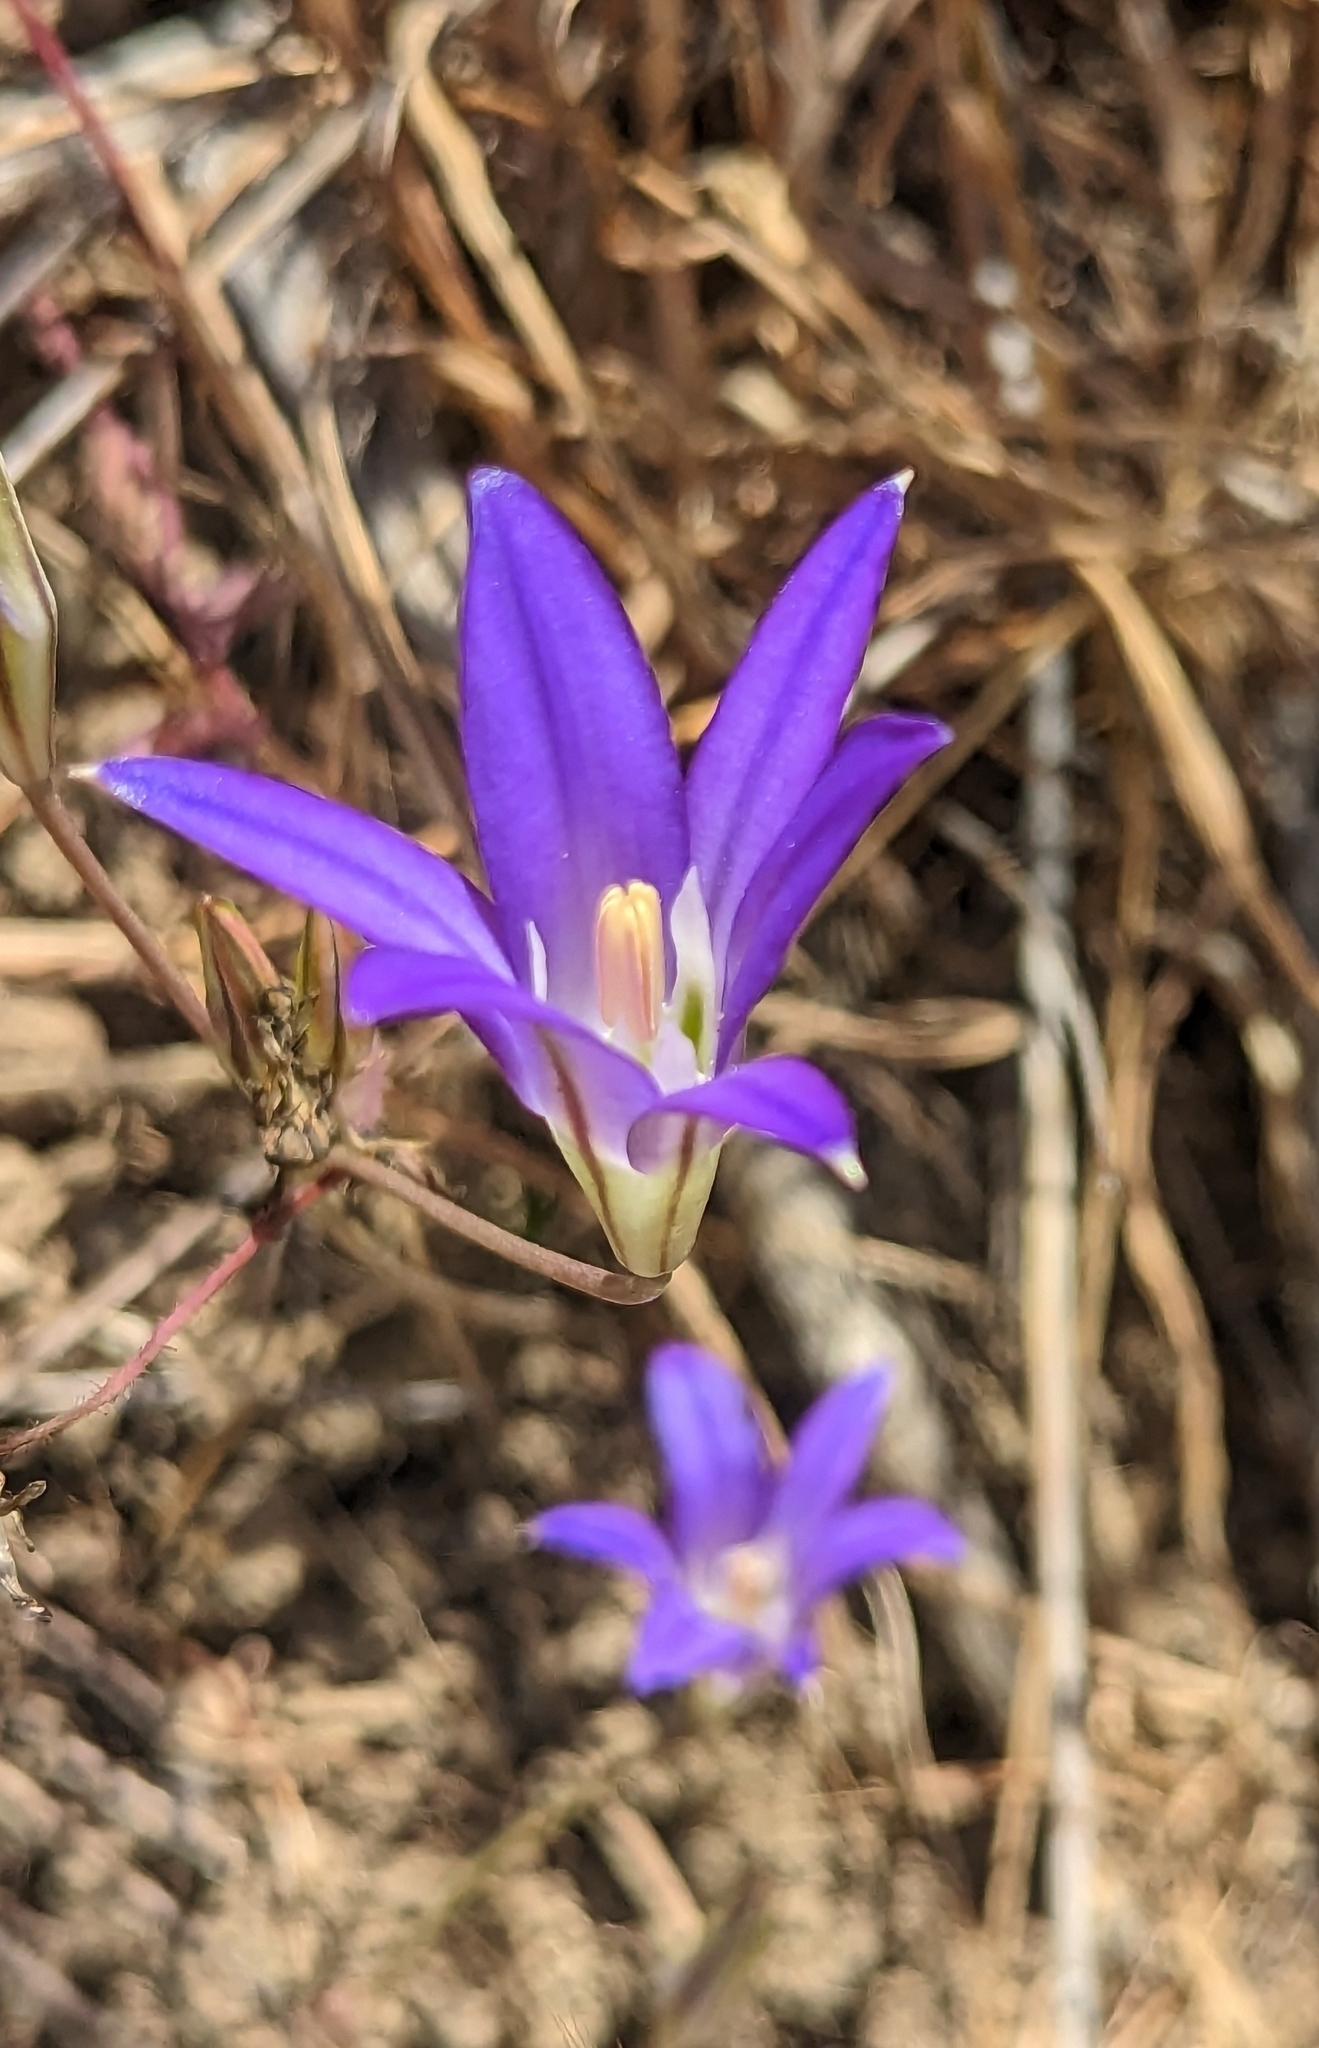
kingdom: Plantae
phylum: Tracheophyta
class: Liliopsida
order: Asparagales
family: Asparagaceae
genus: Brodiaea
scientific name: Brodiaea elegans
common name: Elegant cluster-lily
